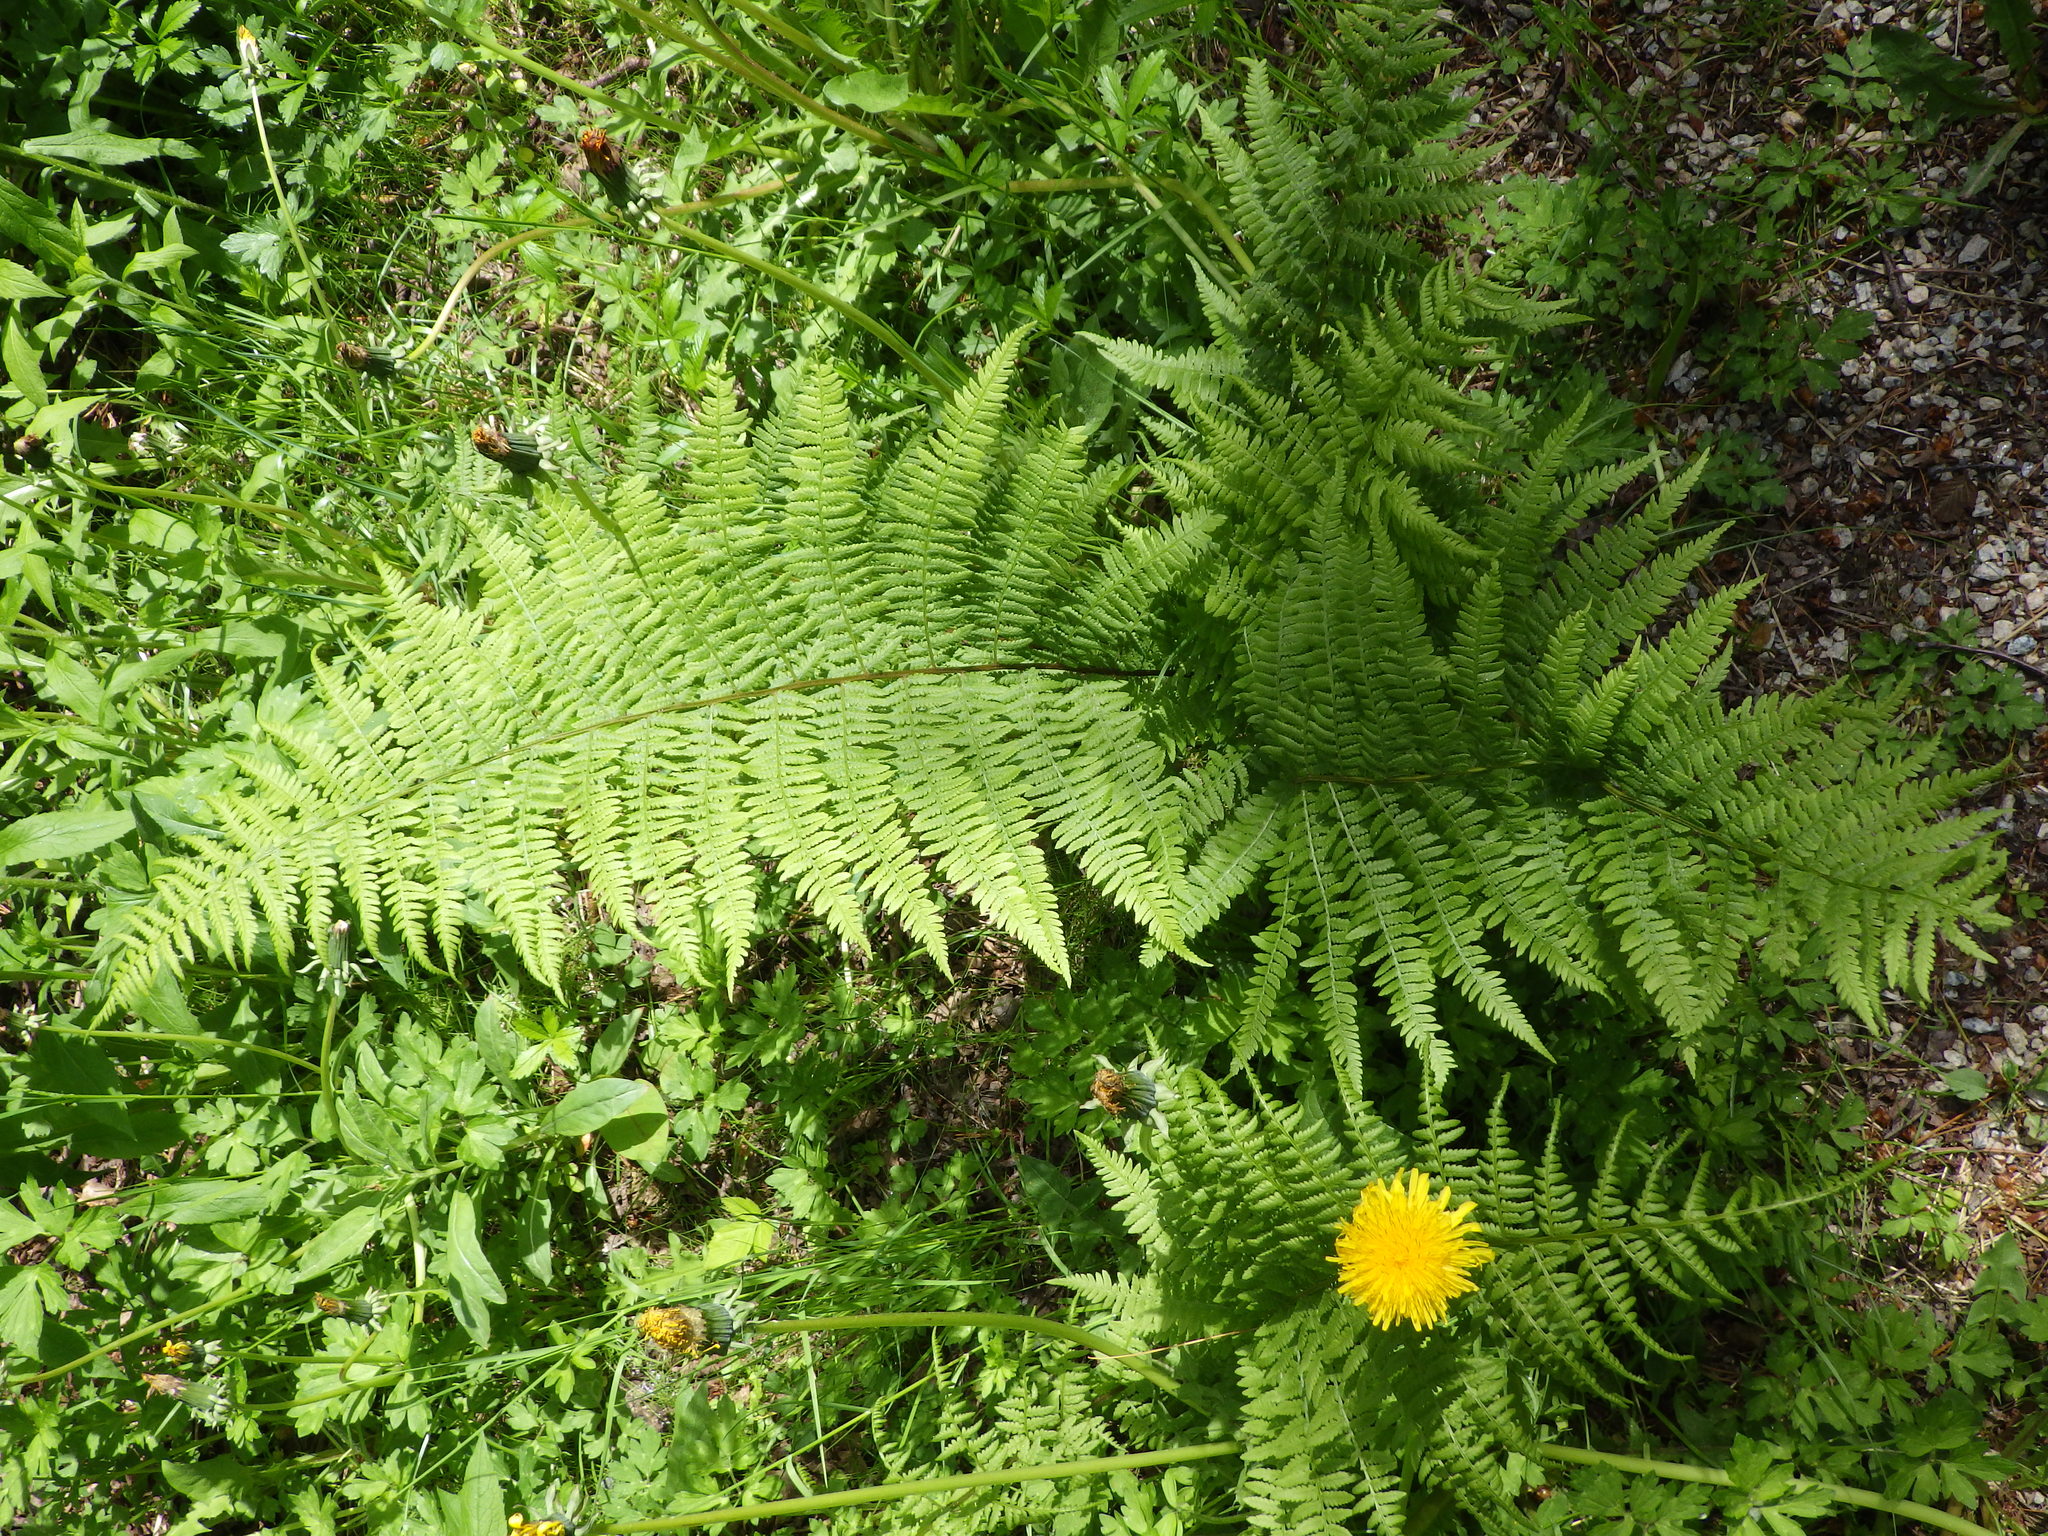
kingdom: Plantae
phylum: Tracheophyta
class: Polypodiopsida
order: Polypodiales
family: Athyriaceae
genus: Athyrium
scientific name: Athyrium angustum
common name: Northern lady fern
